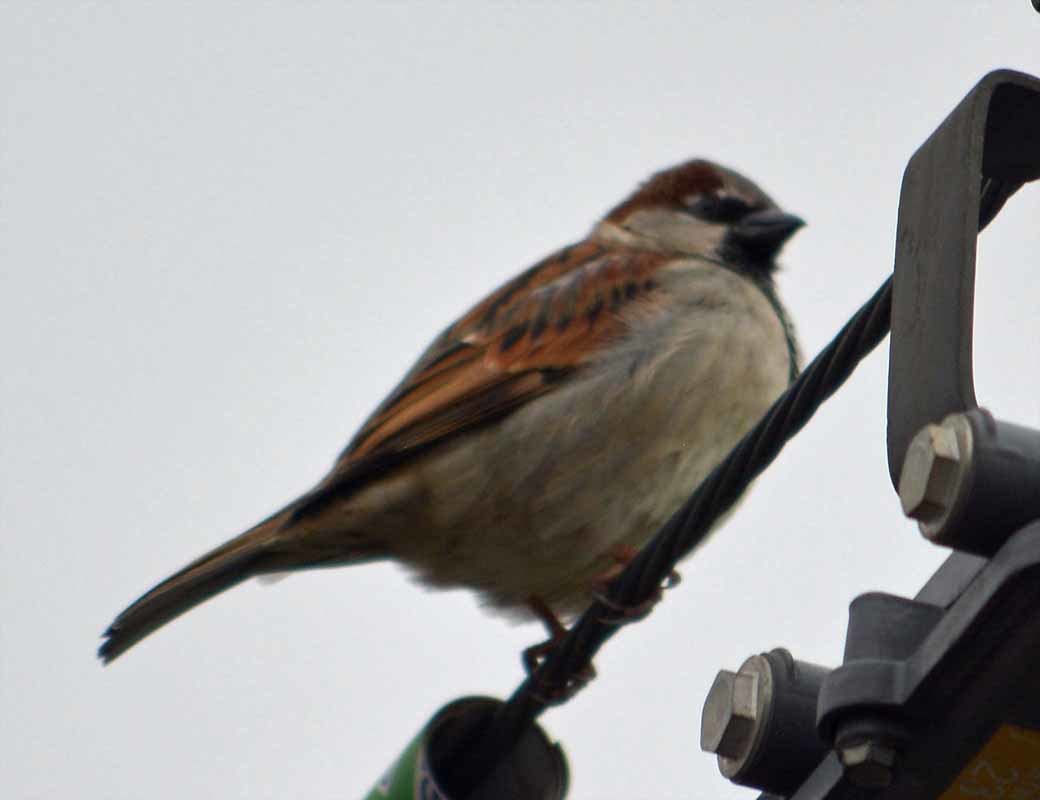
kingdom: Animalia
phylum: Chordata
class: Aves
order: Passeriformes
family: Passeridae
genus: Passer
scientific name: Passer domesticus
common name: House sparrow
